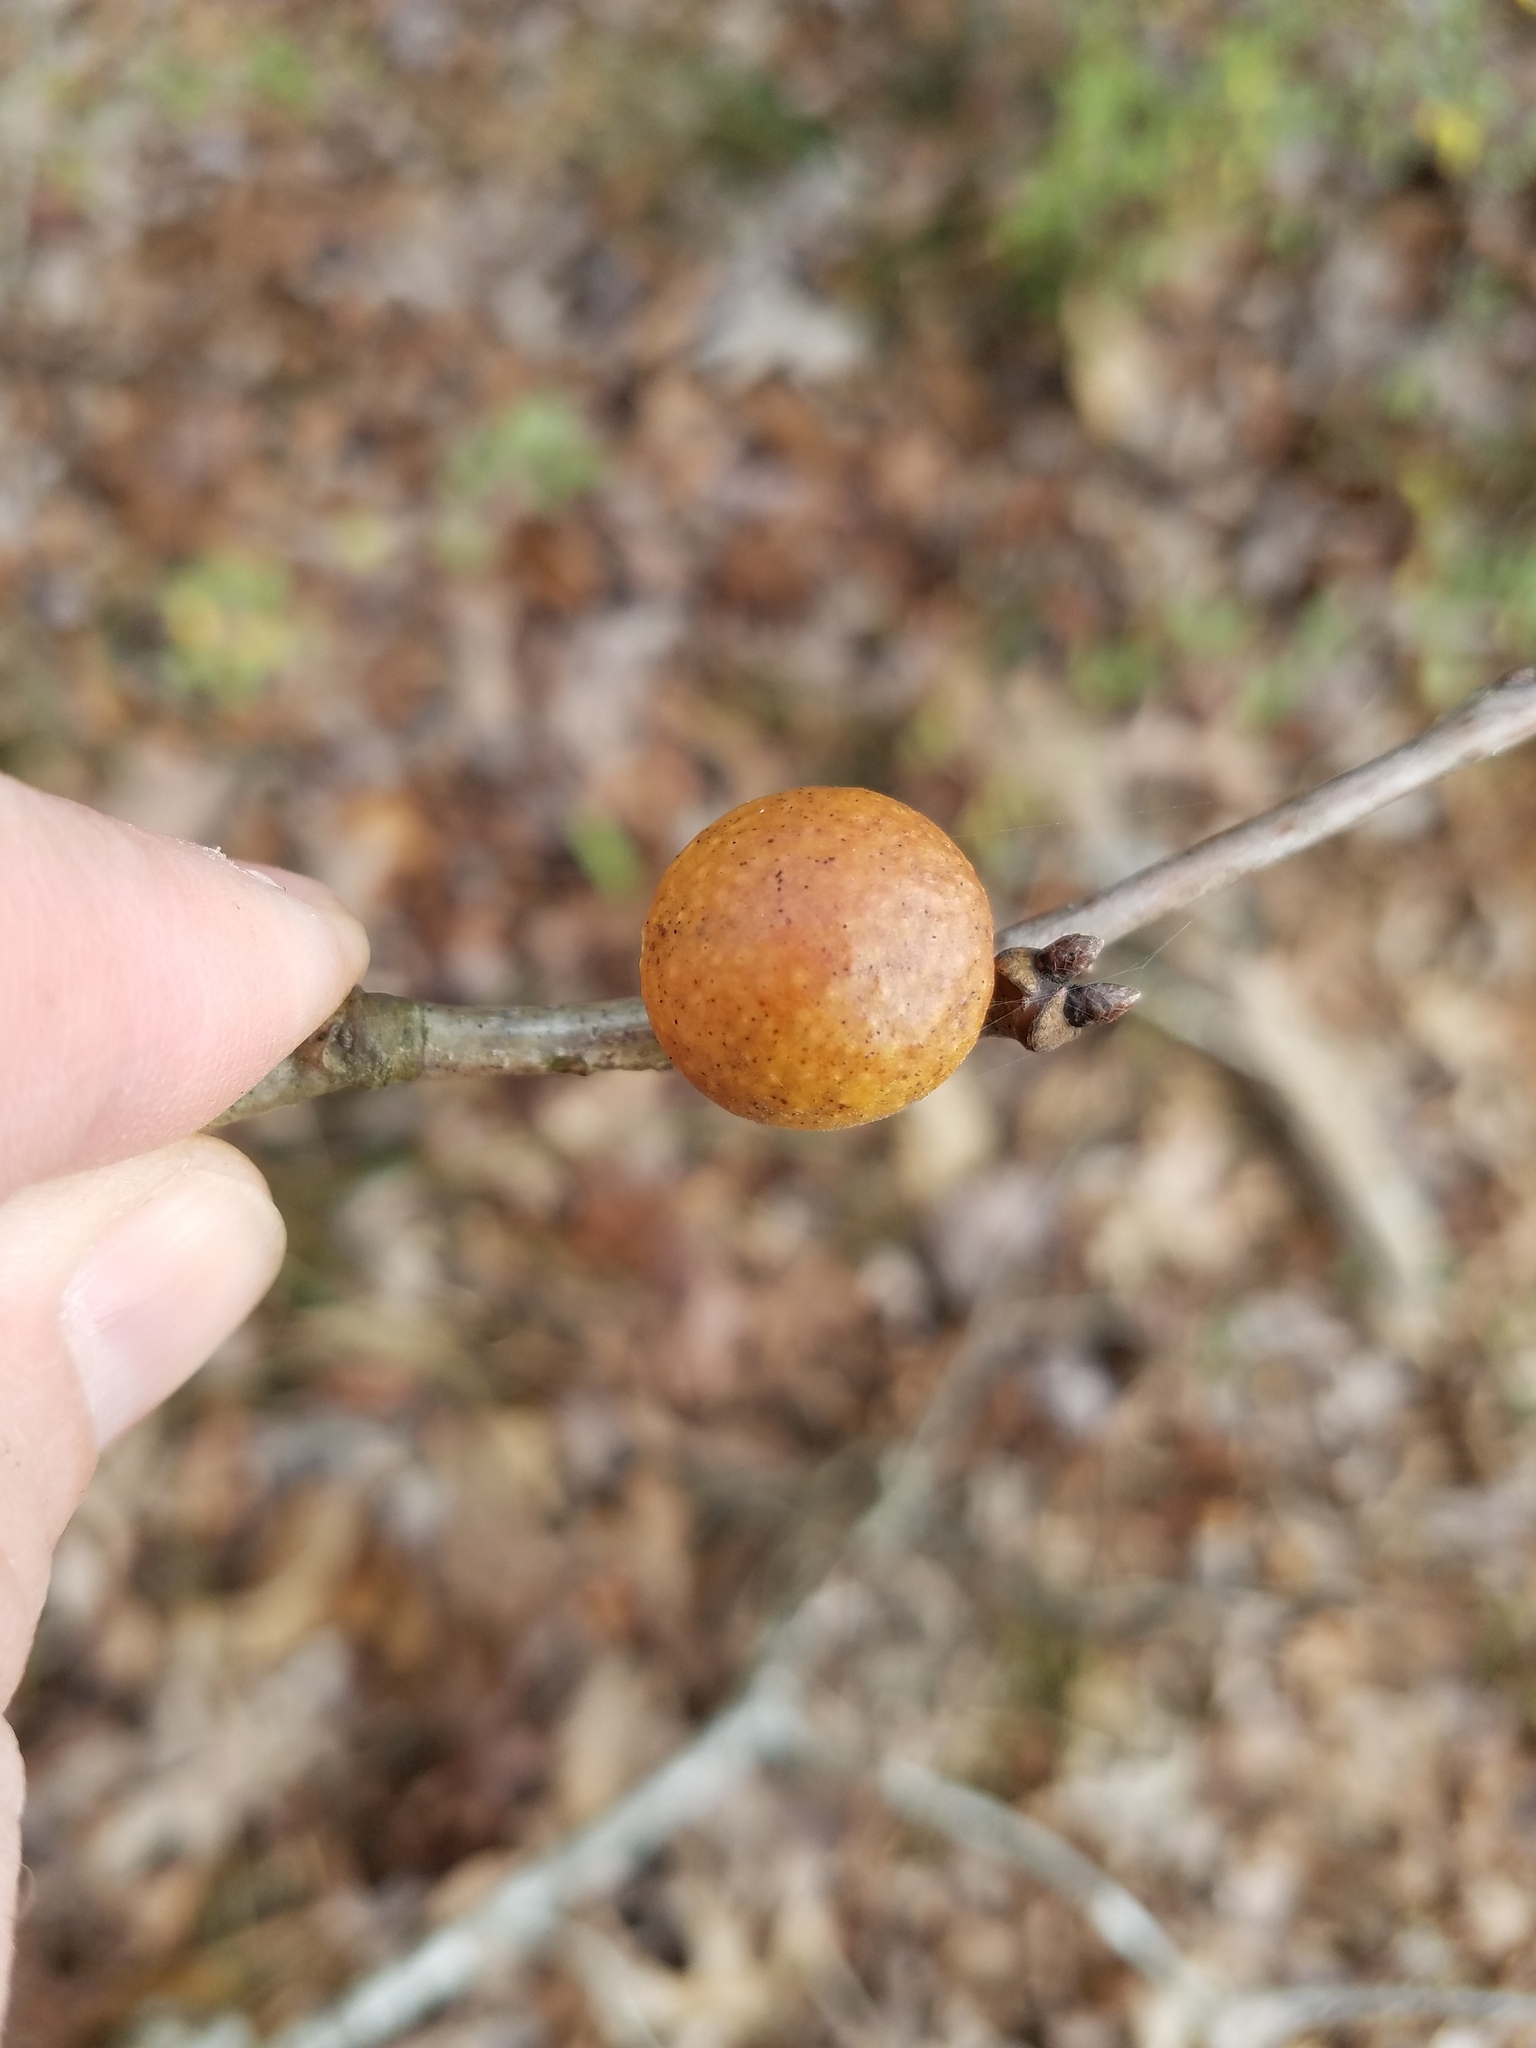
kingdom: Animalia
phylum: Arthropoda
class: Insecta
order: Hymenoptera
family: Cynipidae
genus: Disholcaspis
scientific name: Disholcaspis quercusglobulus
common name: Round bullet gall wasp
